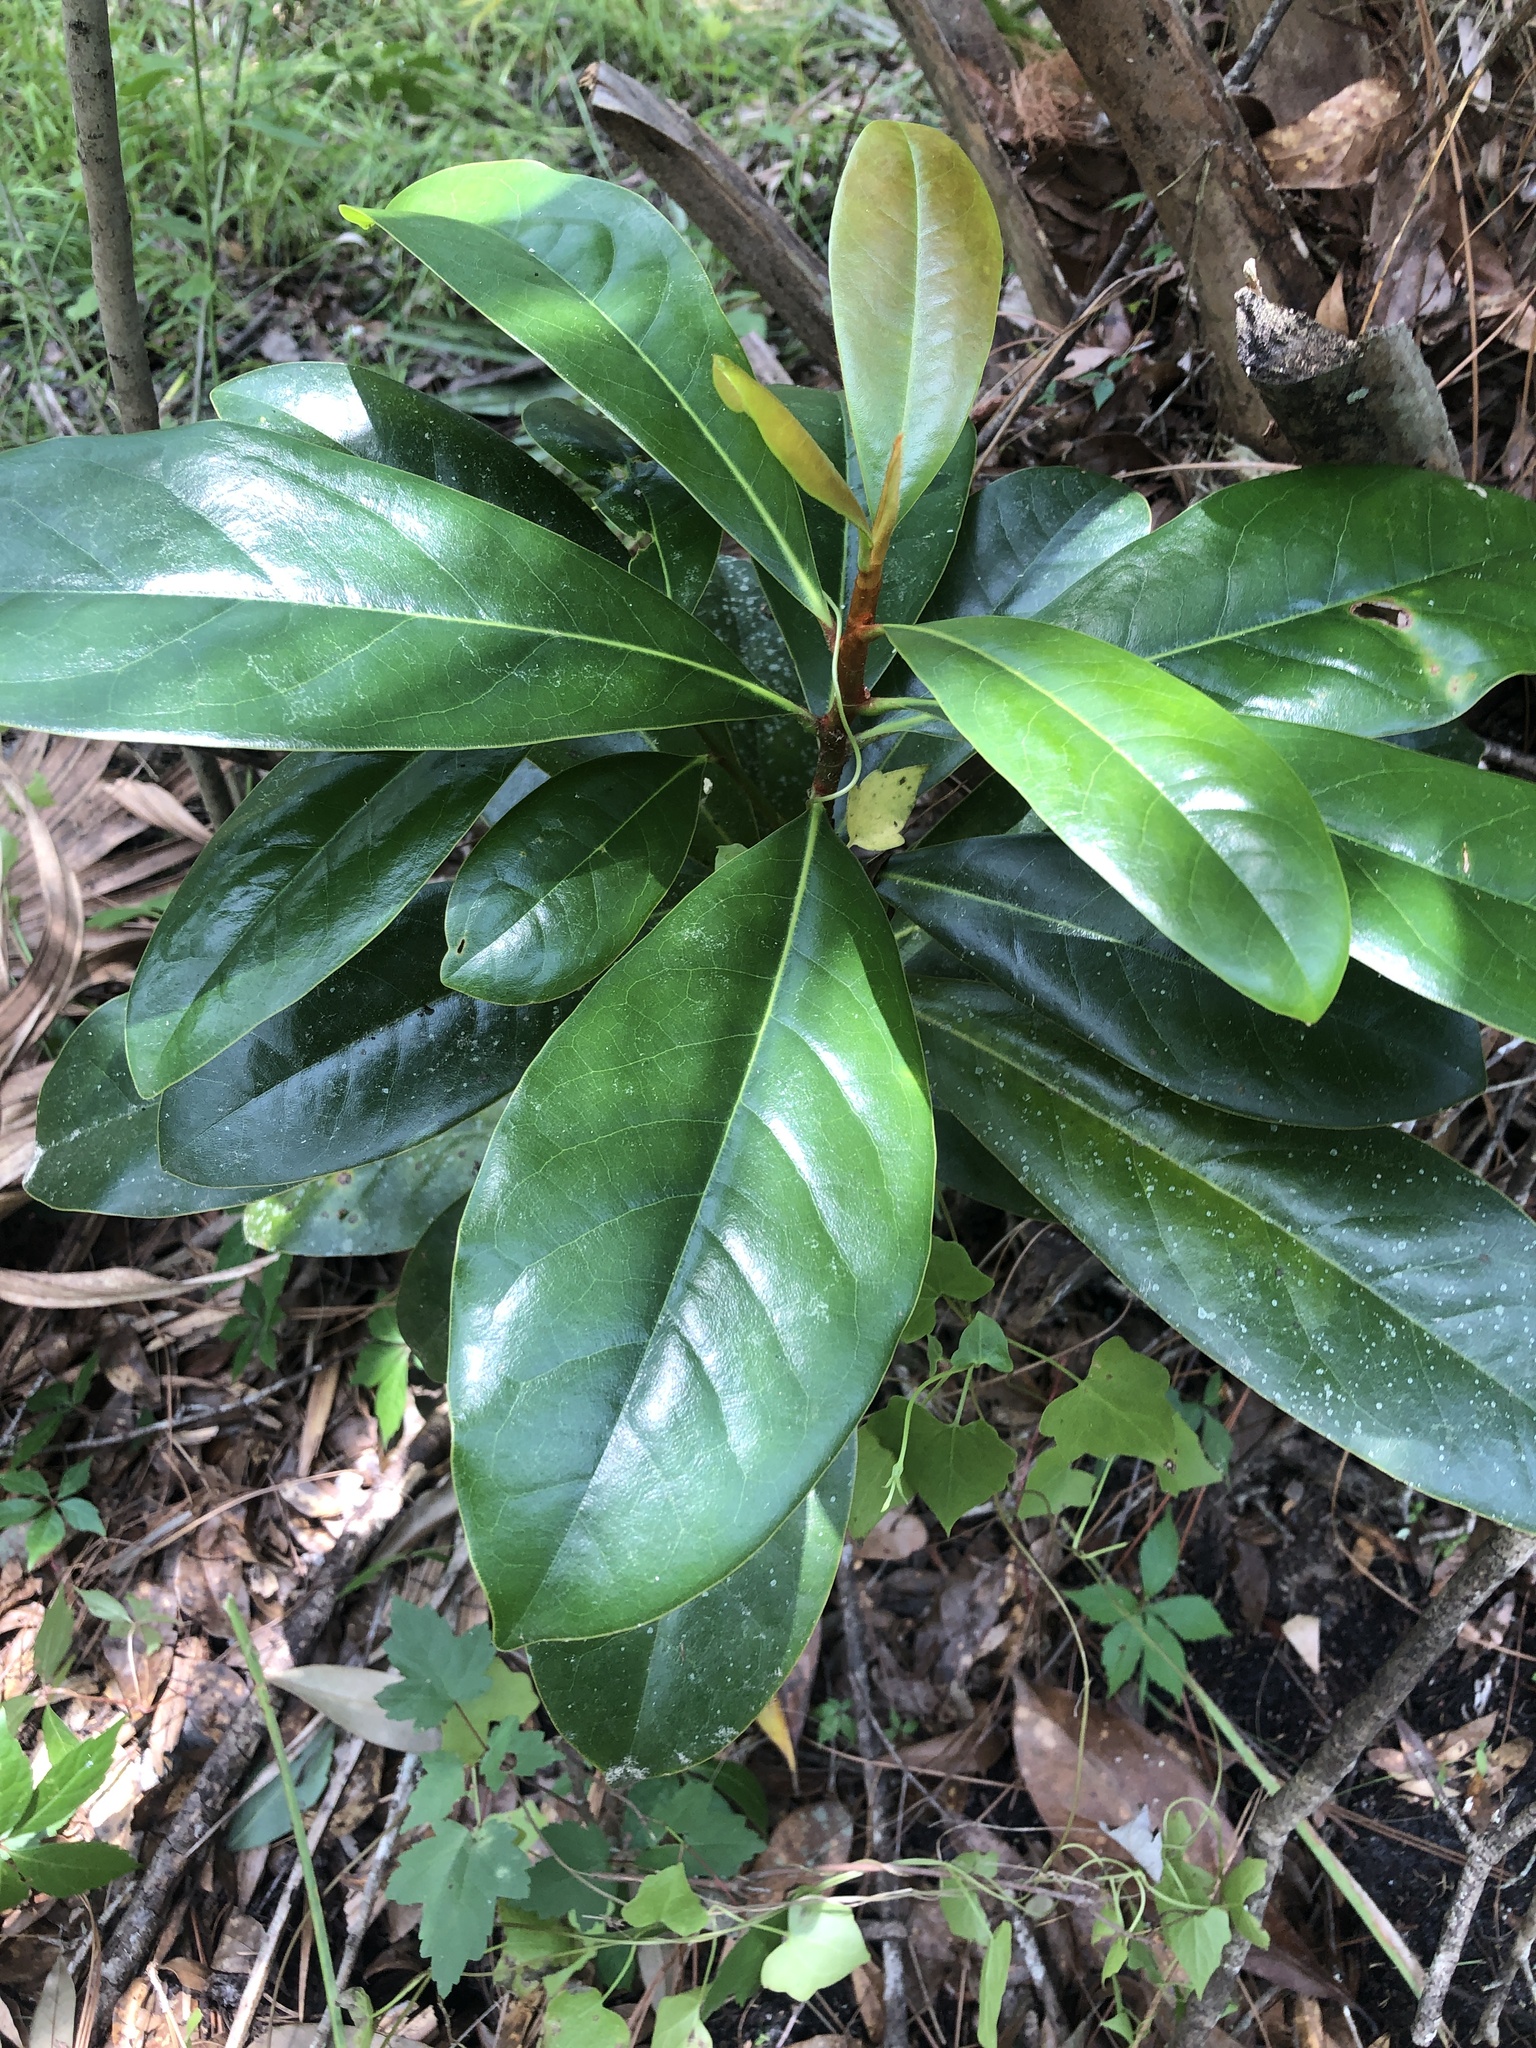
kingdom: Plantae
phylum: Tracheophyta
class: Magnoliopsida
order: Magnoliales
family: Magnoliaceae
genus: Magnolia
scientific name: Magnolia grandiflora
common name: Southern magnolia
